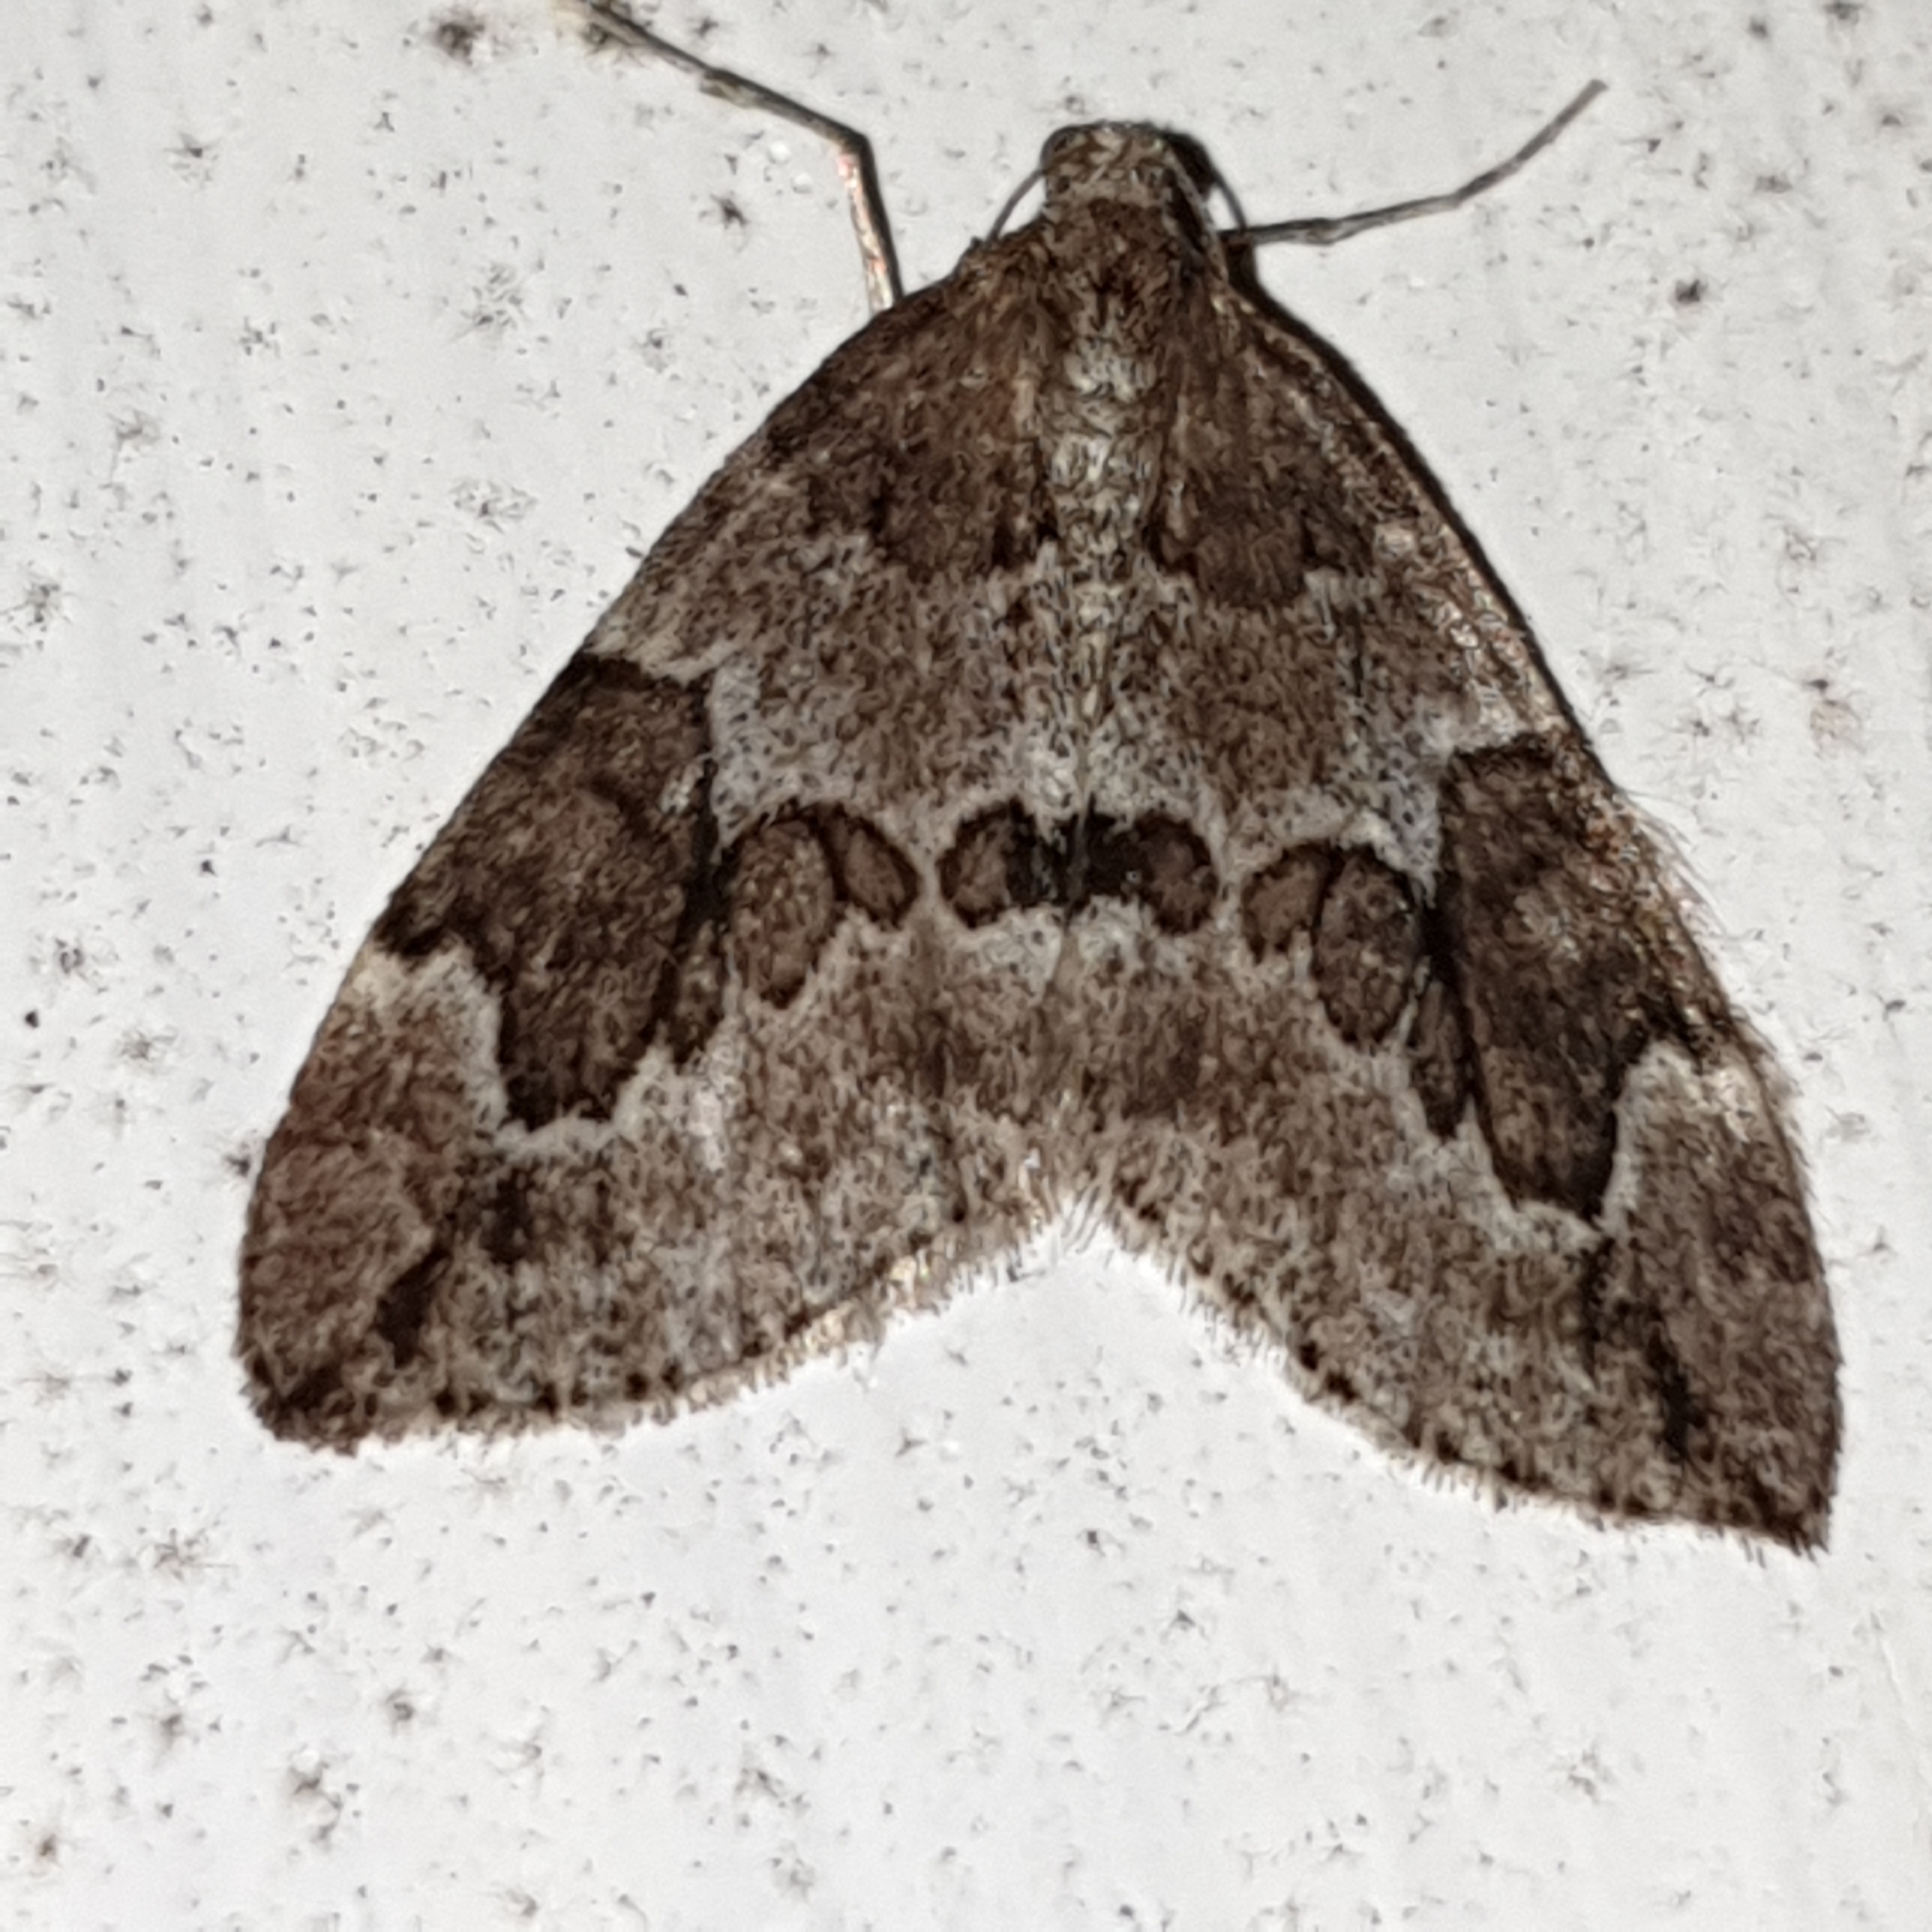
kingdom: Animalia
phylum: Arthropoda
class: Insecta
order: Lepidoptera
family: Geometridae
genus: Thera
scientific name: Thera juniperata
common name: Juniper carpet
